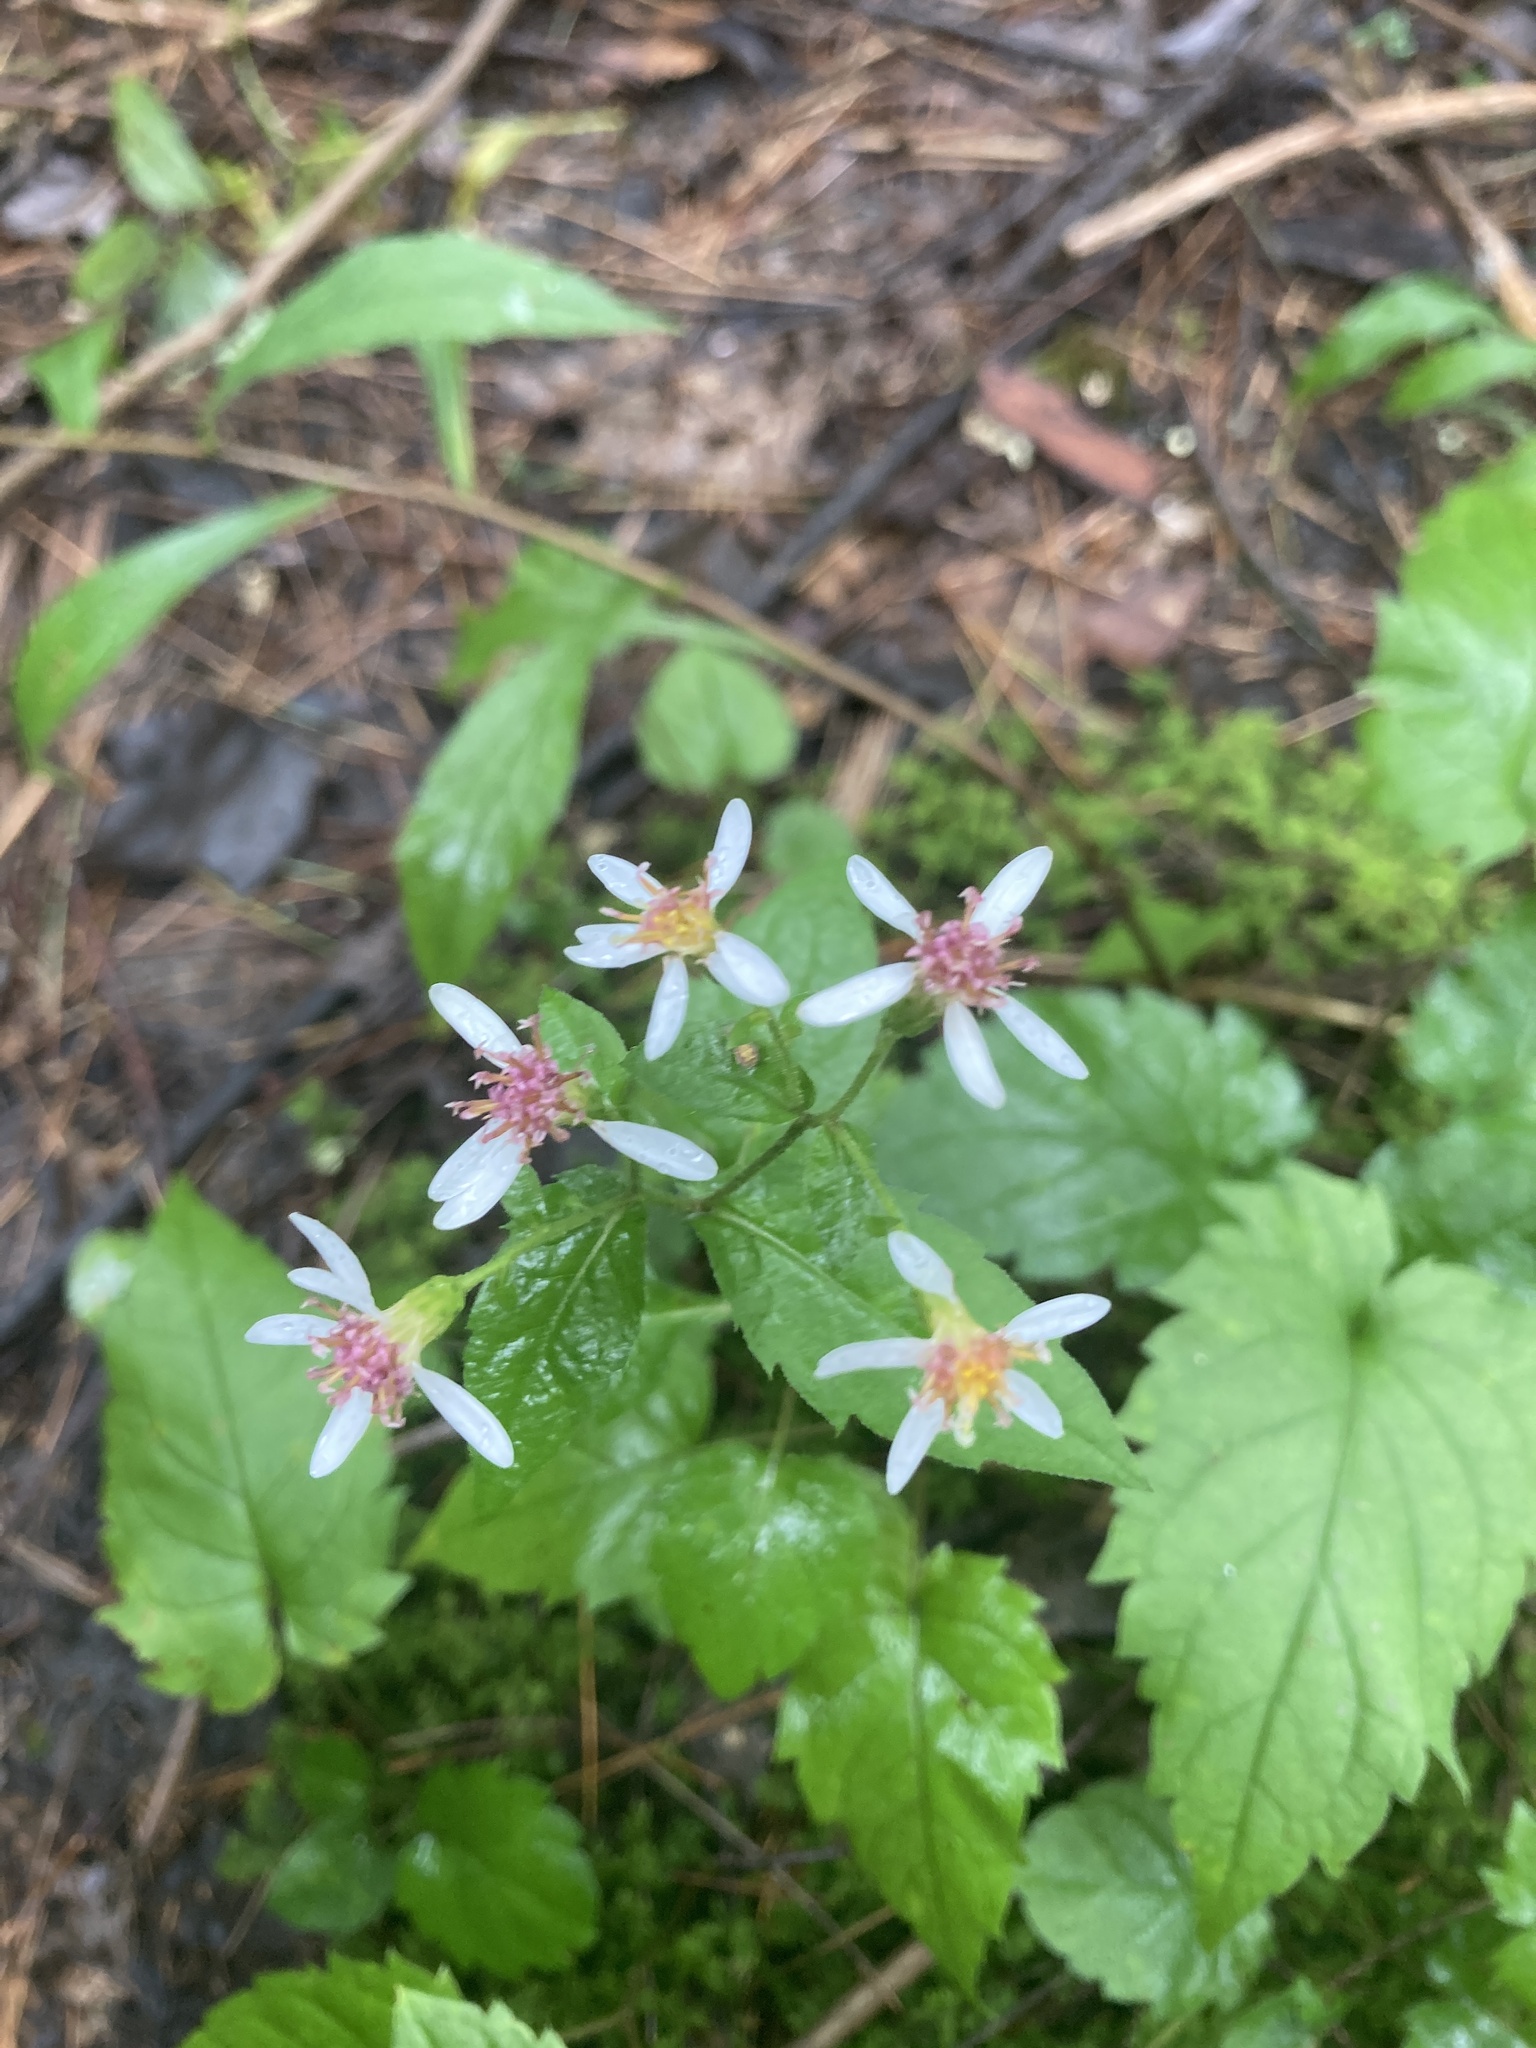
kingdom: Plantae
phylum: Tracheophyta
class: Magnoliopsida
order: Asterales
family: Asteraceae
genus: Eurybia
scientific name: Eurybia divaricata
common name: White wood aster
